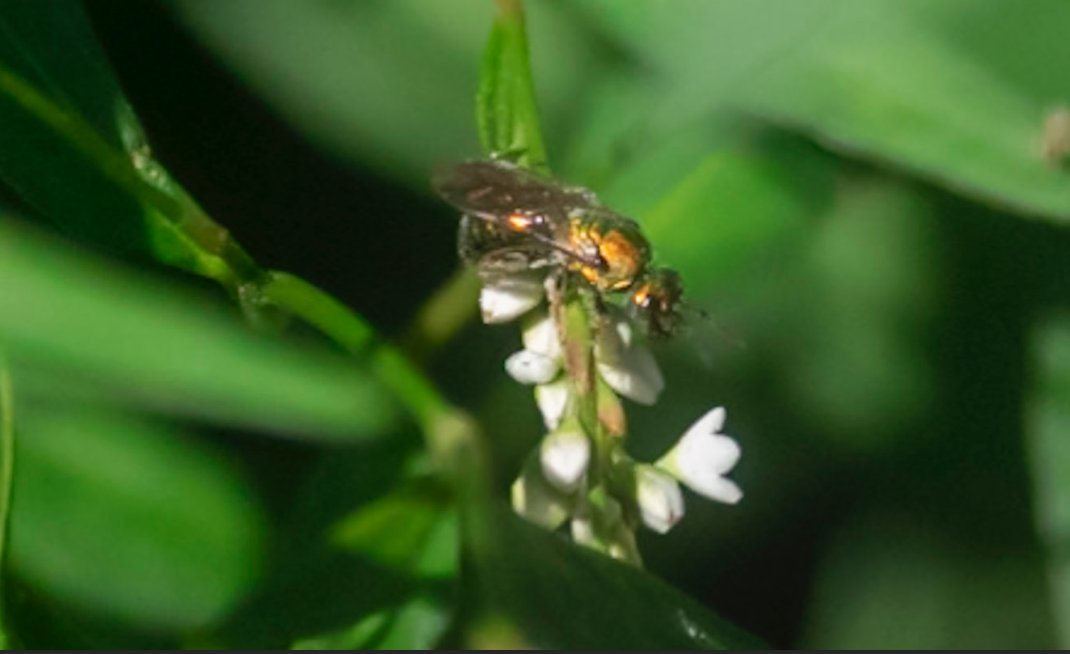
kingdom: Animalia
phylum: Arthropoda
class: Insecta
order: Hymenoptera
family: Halictidae
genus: Augochlora
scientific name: Augochlora pura
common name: Pure green sweat bee
